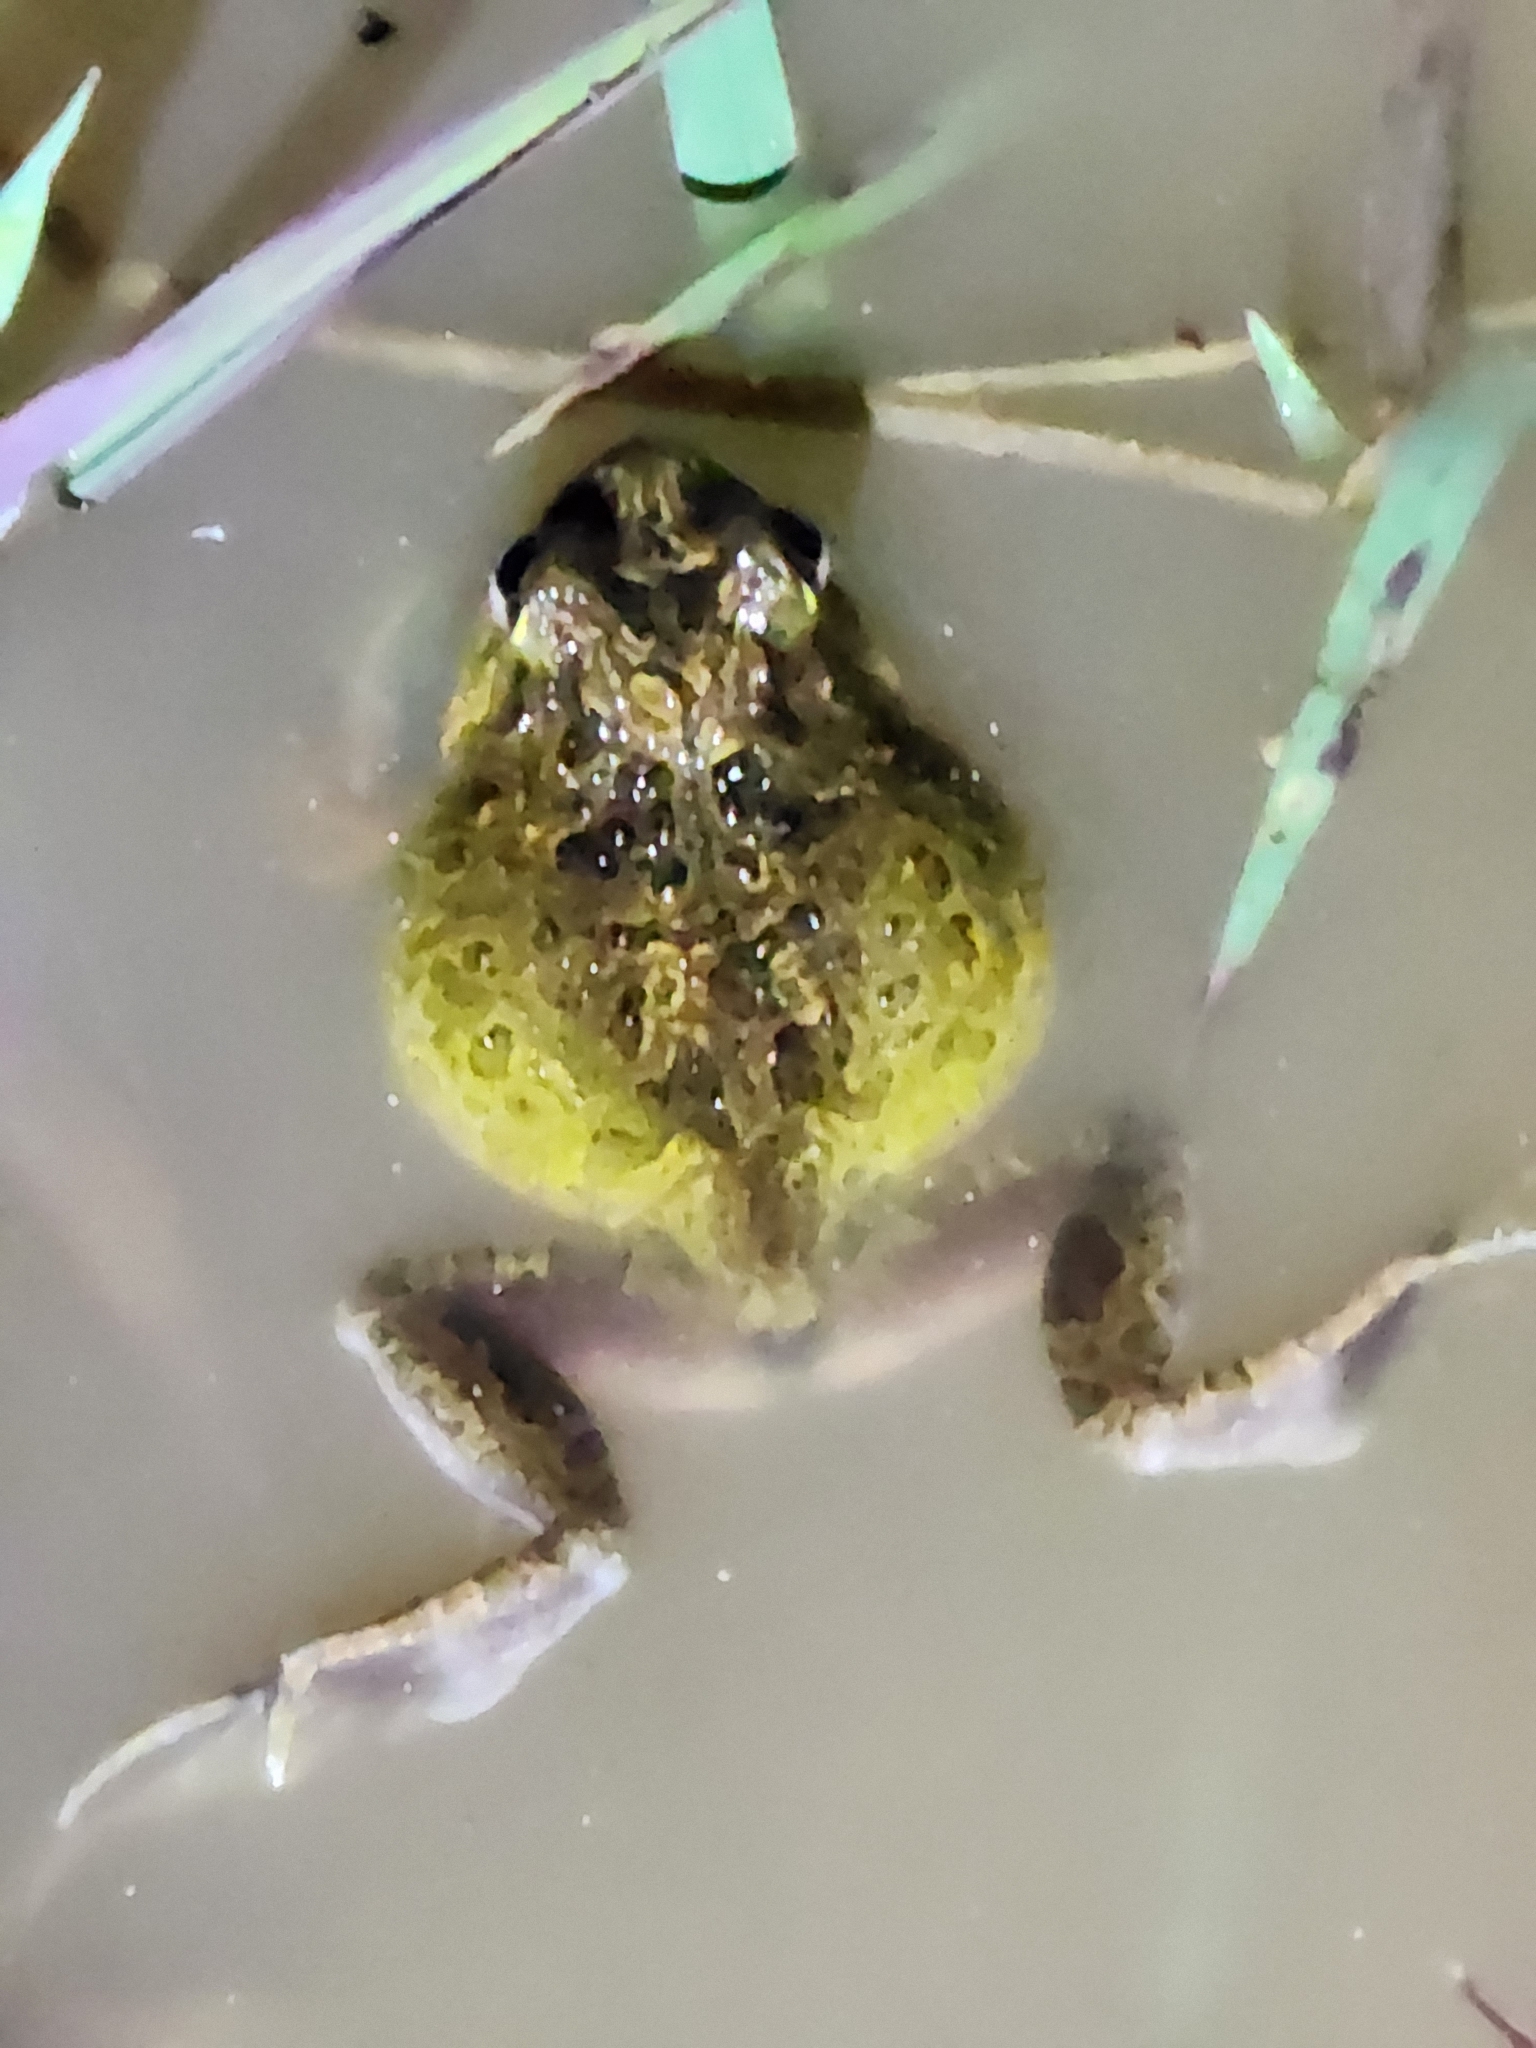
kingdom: Animalia
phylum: Chordata
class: Amphibia
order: Anura
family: Limnodynastidae
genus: Platyplectrum
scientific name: Platyplectrum ornatum
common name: Ornate burrowing frog
